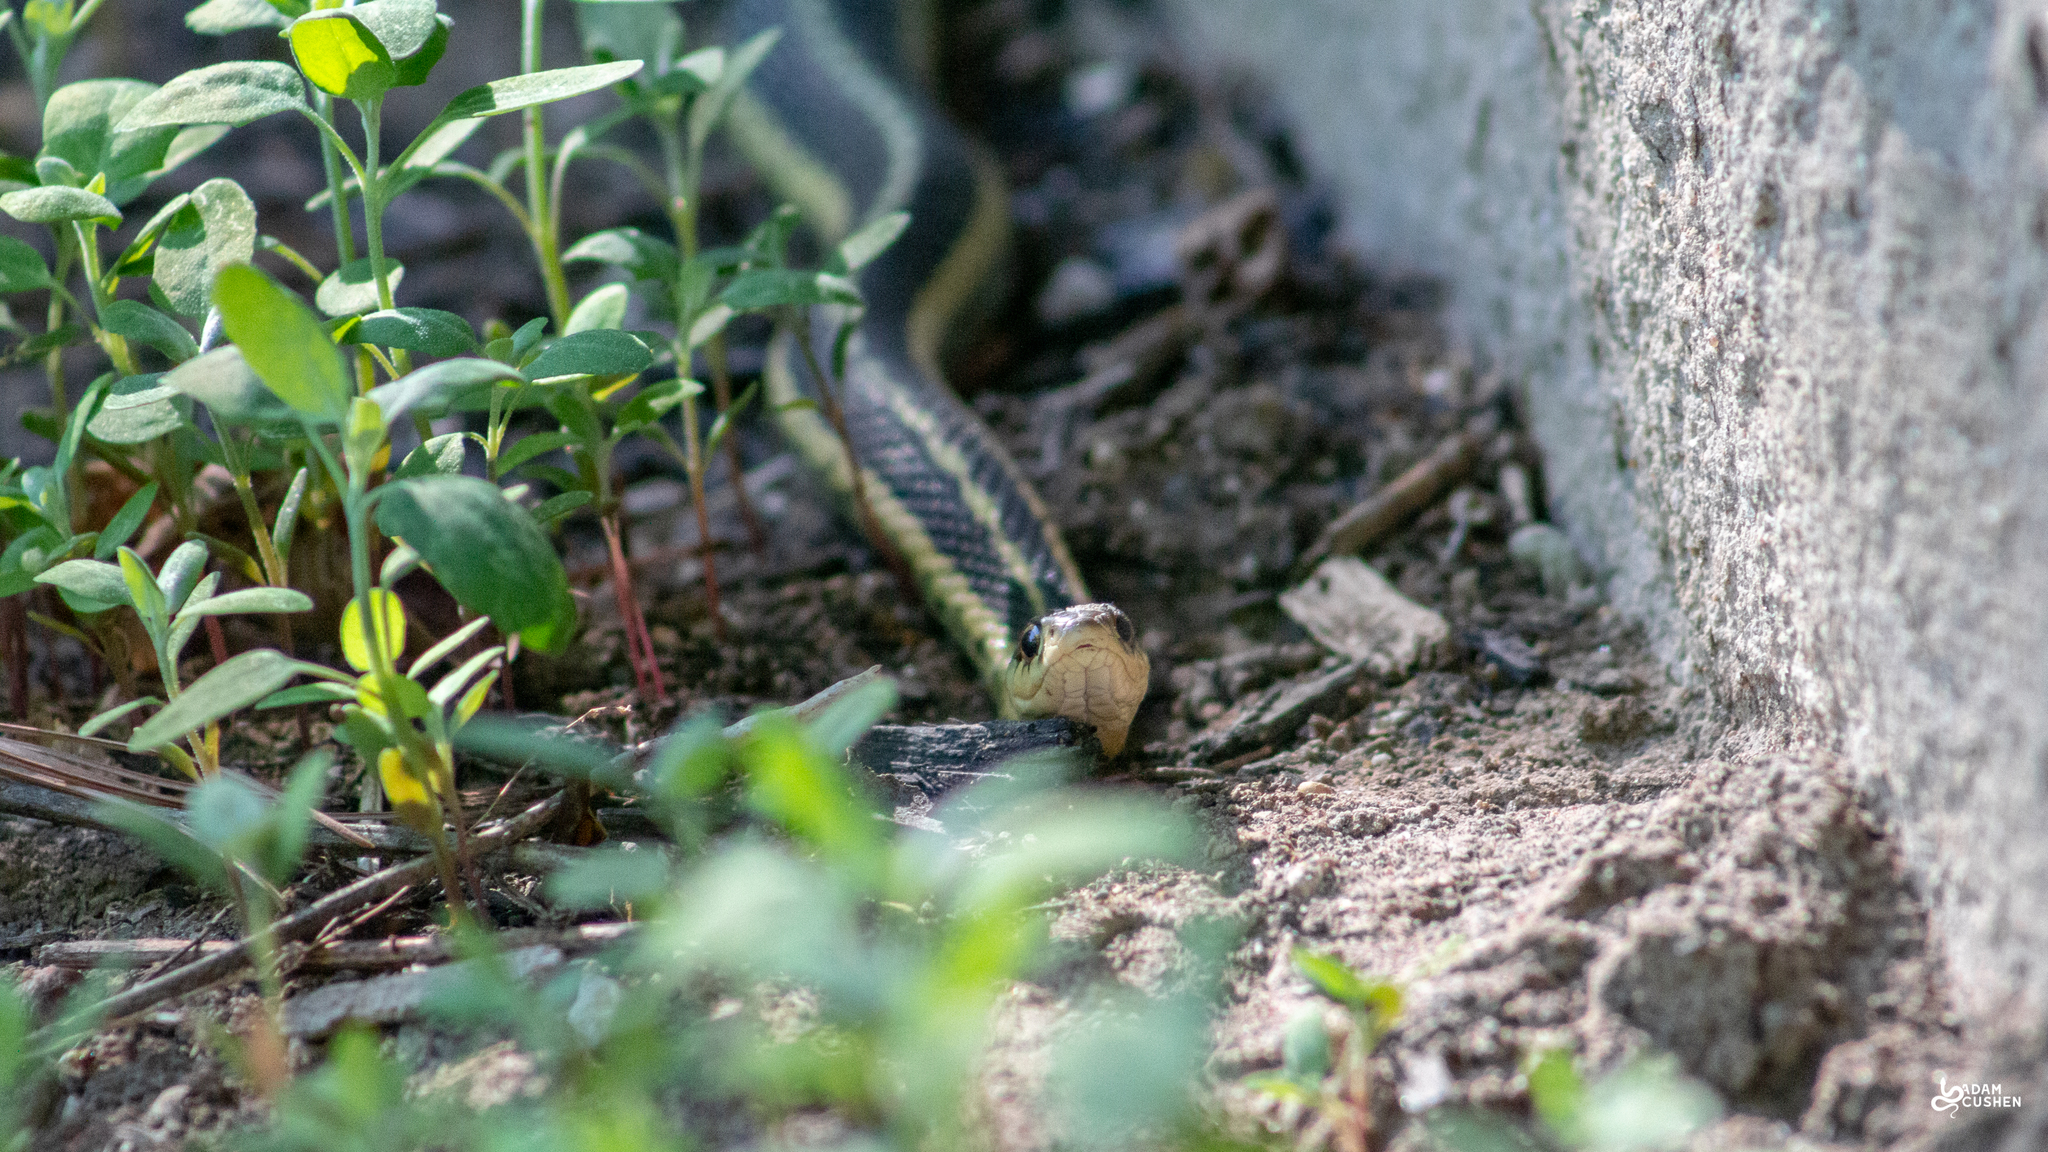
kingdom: Animalia
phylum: Chordata
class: Squamata
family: Colubridae
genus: Thamnophis
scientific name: Thamnophis sirtalis
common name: Common garter snake
